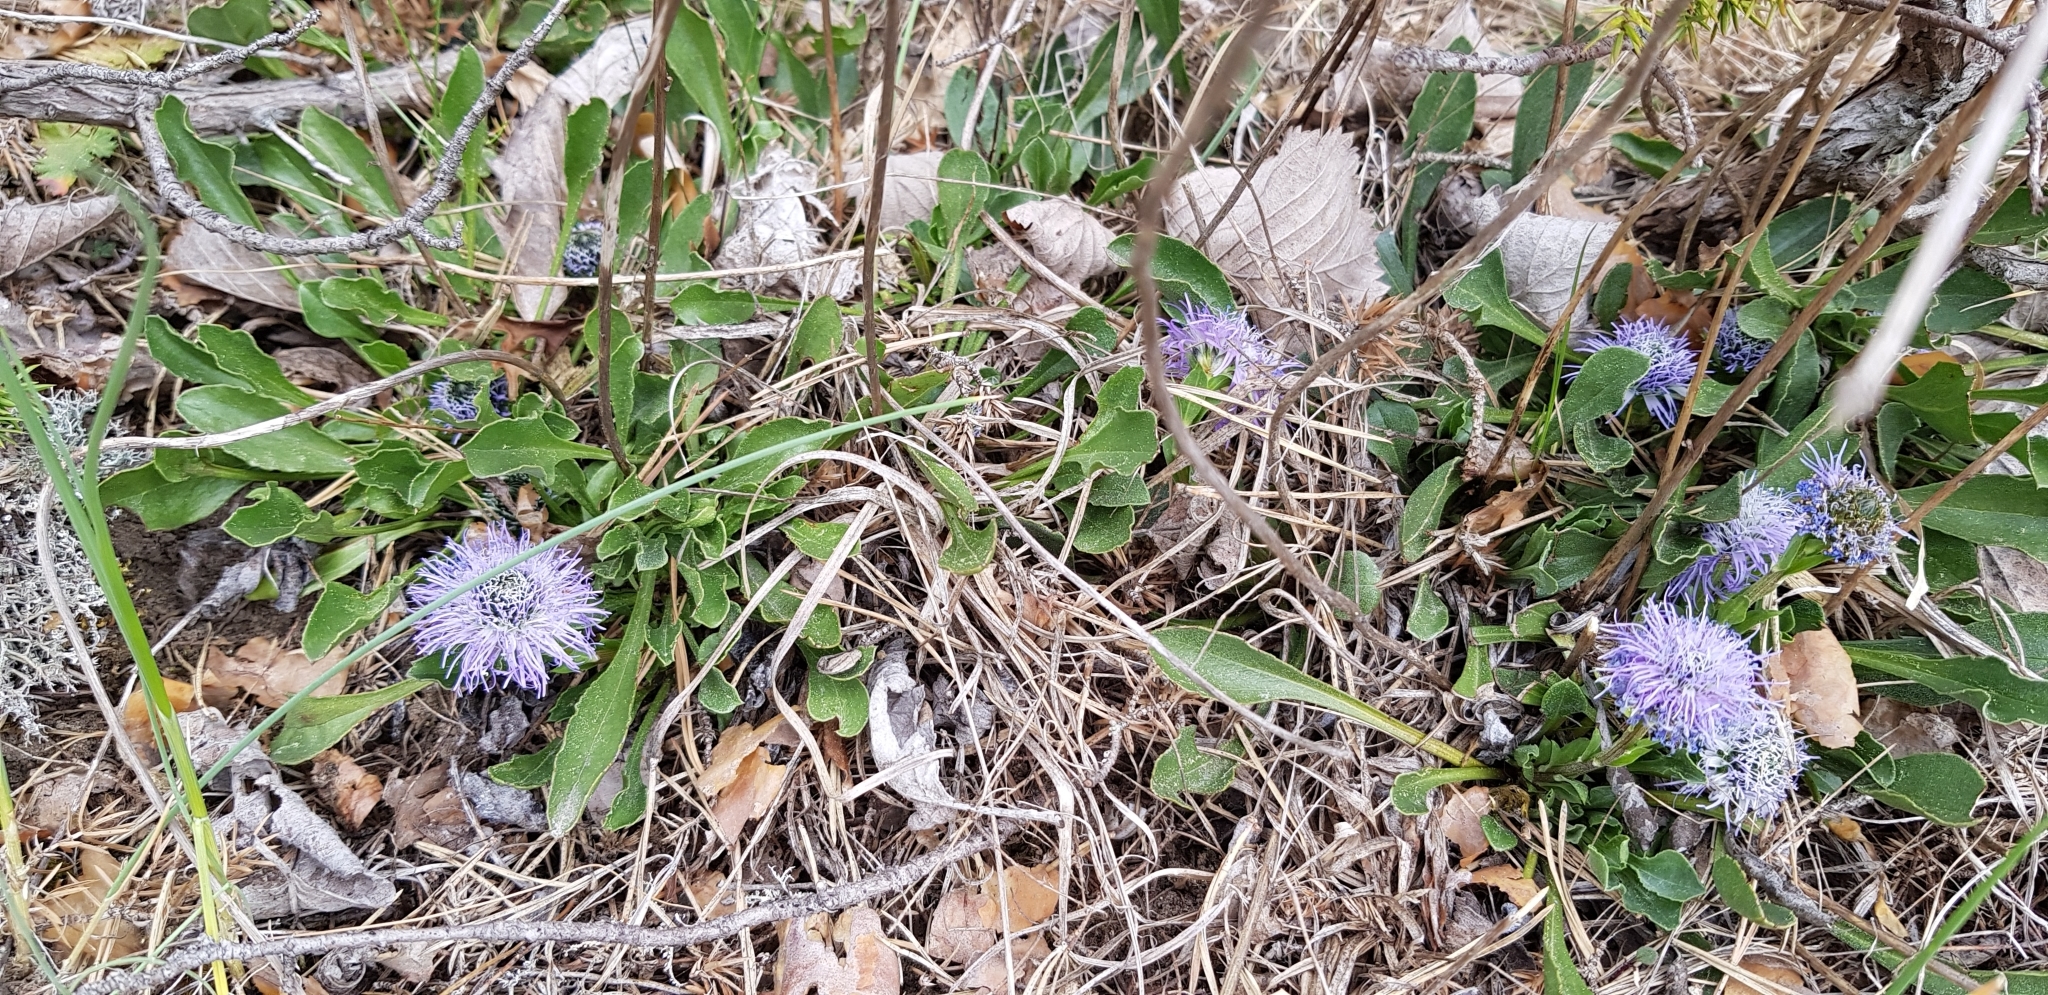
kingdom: Plantae
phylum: Tracheophyta
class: Magnoliopsida
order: Lamiales
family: Plantaginaceae
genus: Globularia
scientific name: Globularia vulgaris
